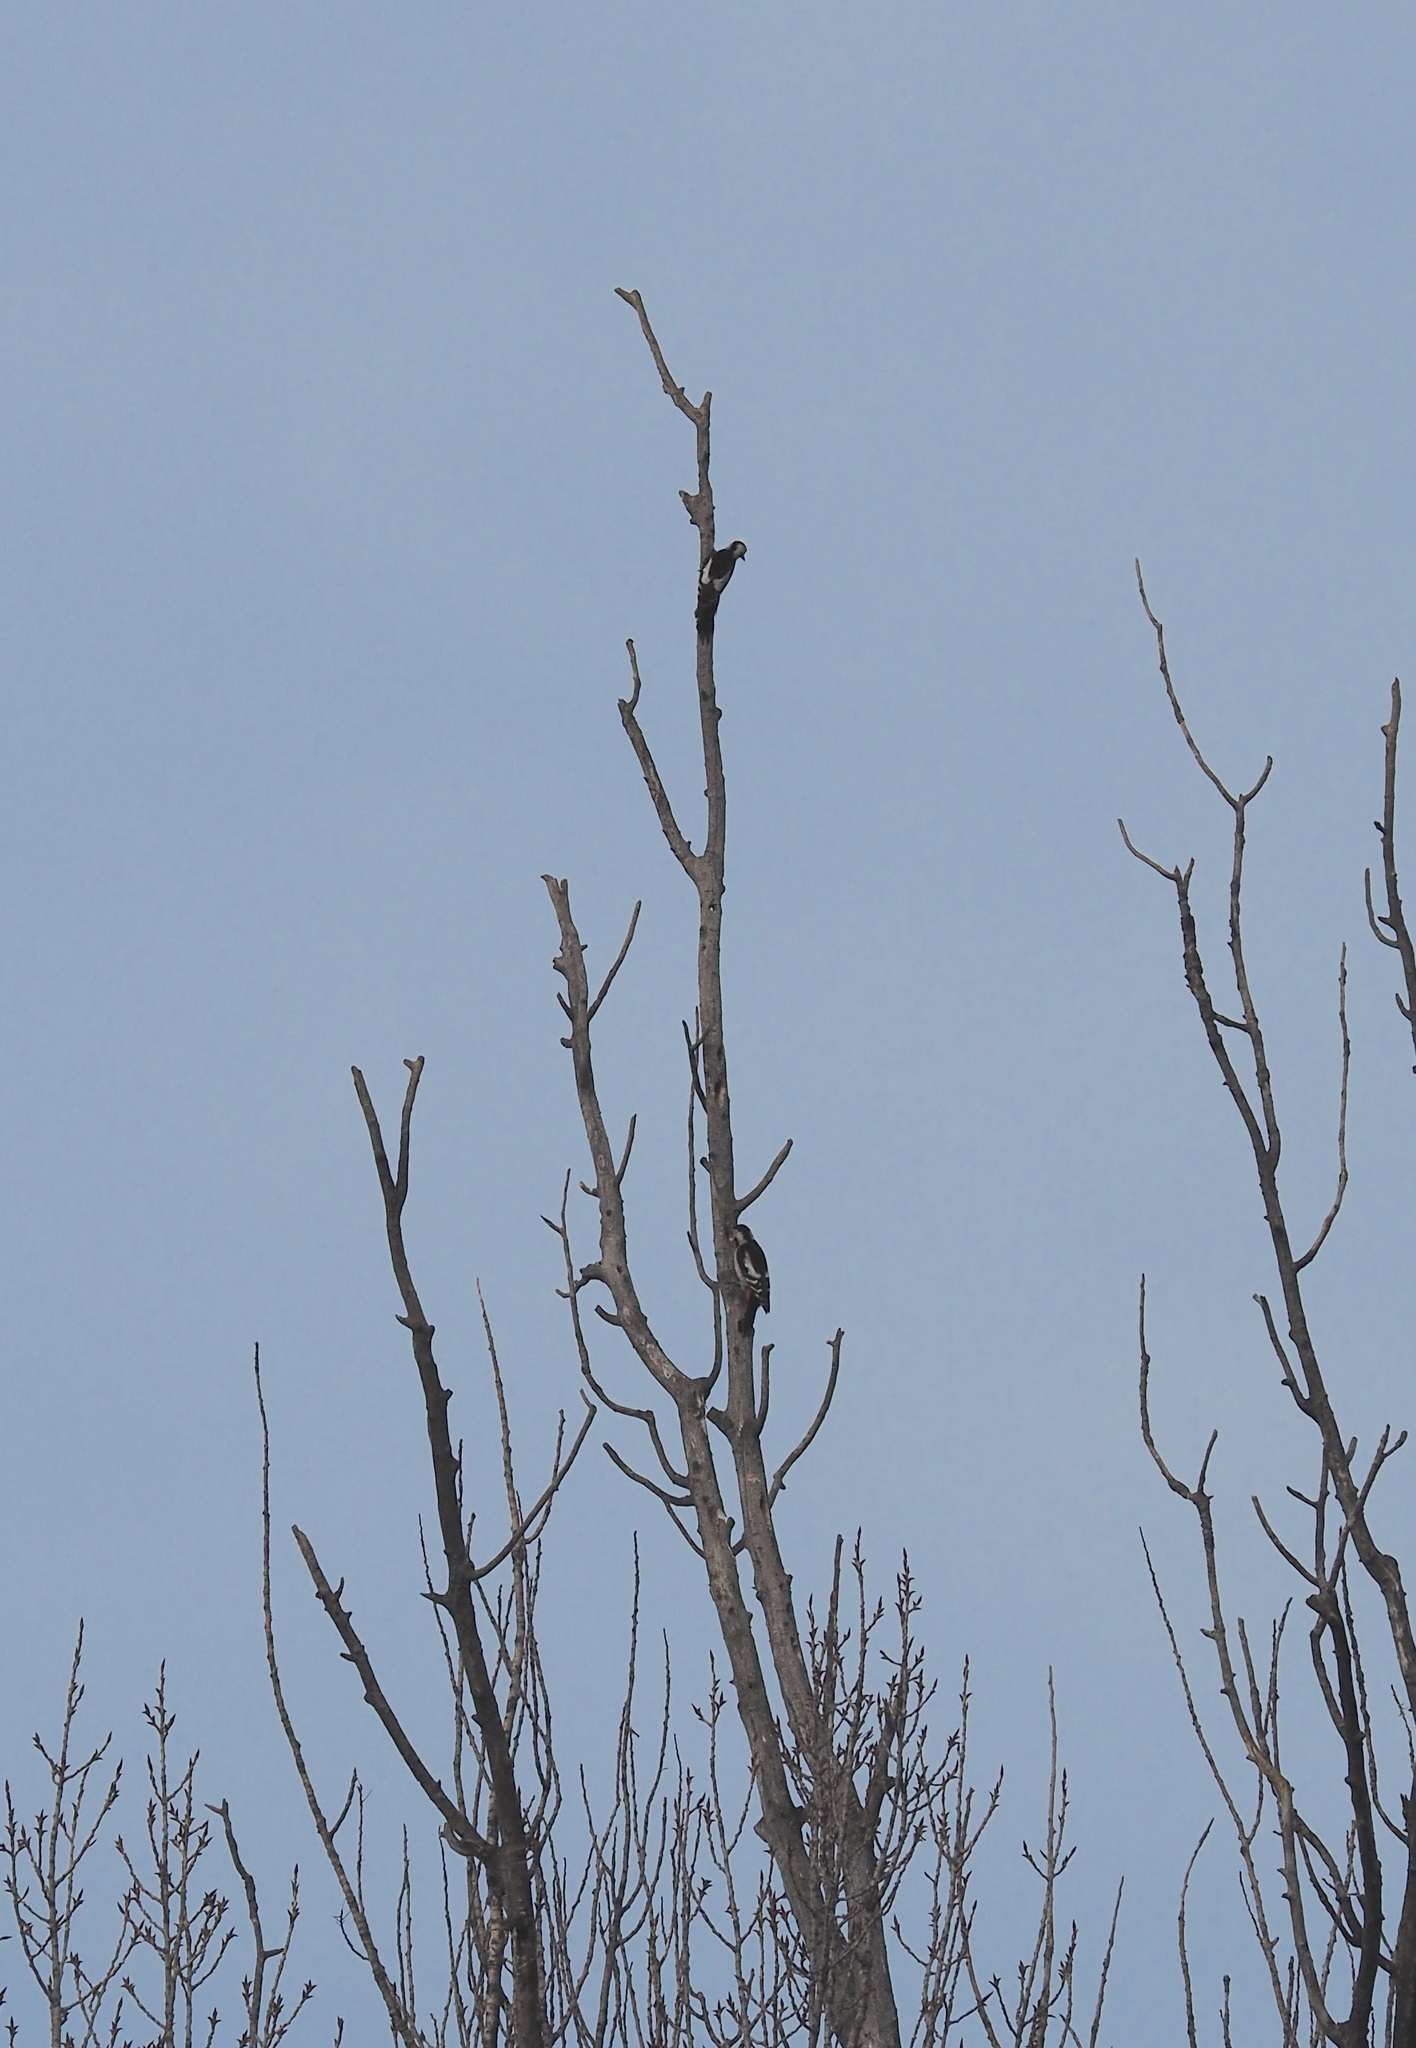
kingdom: Animalia
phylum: Chordata
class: Aves
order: Piciformes
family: Picidae
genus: Dendrocopos
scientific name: Dendrocopos syriacus
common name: Syrian woodpecker
